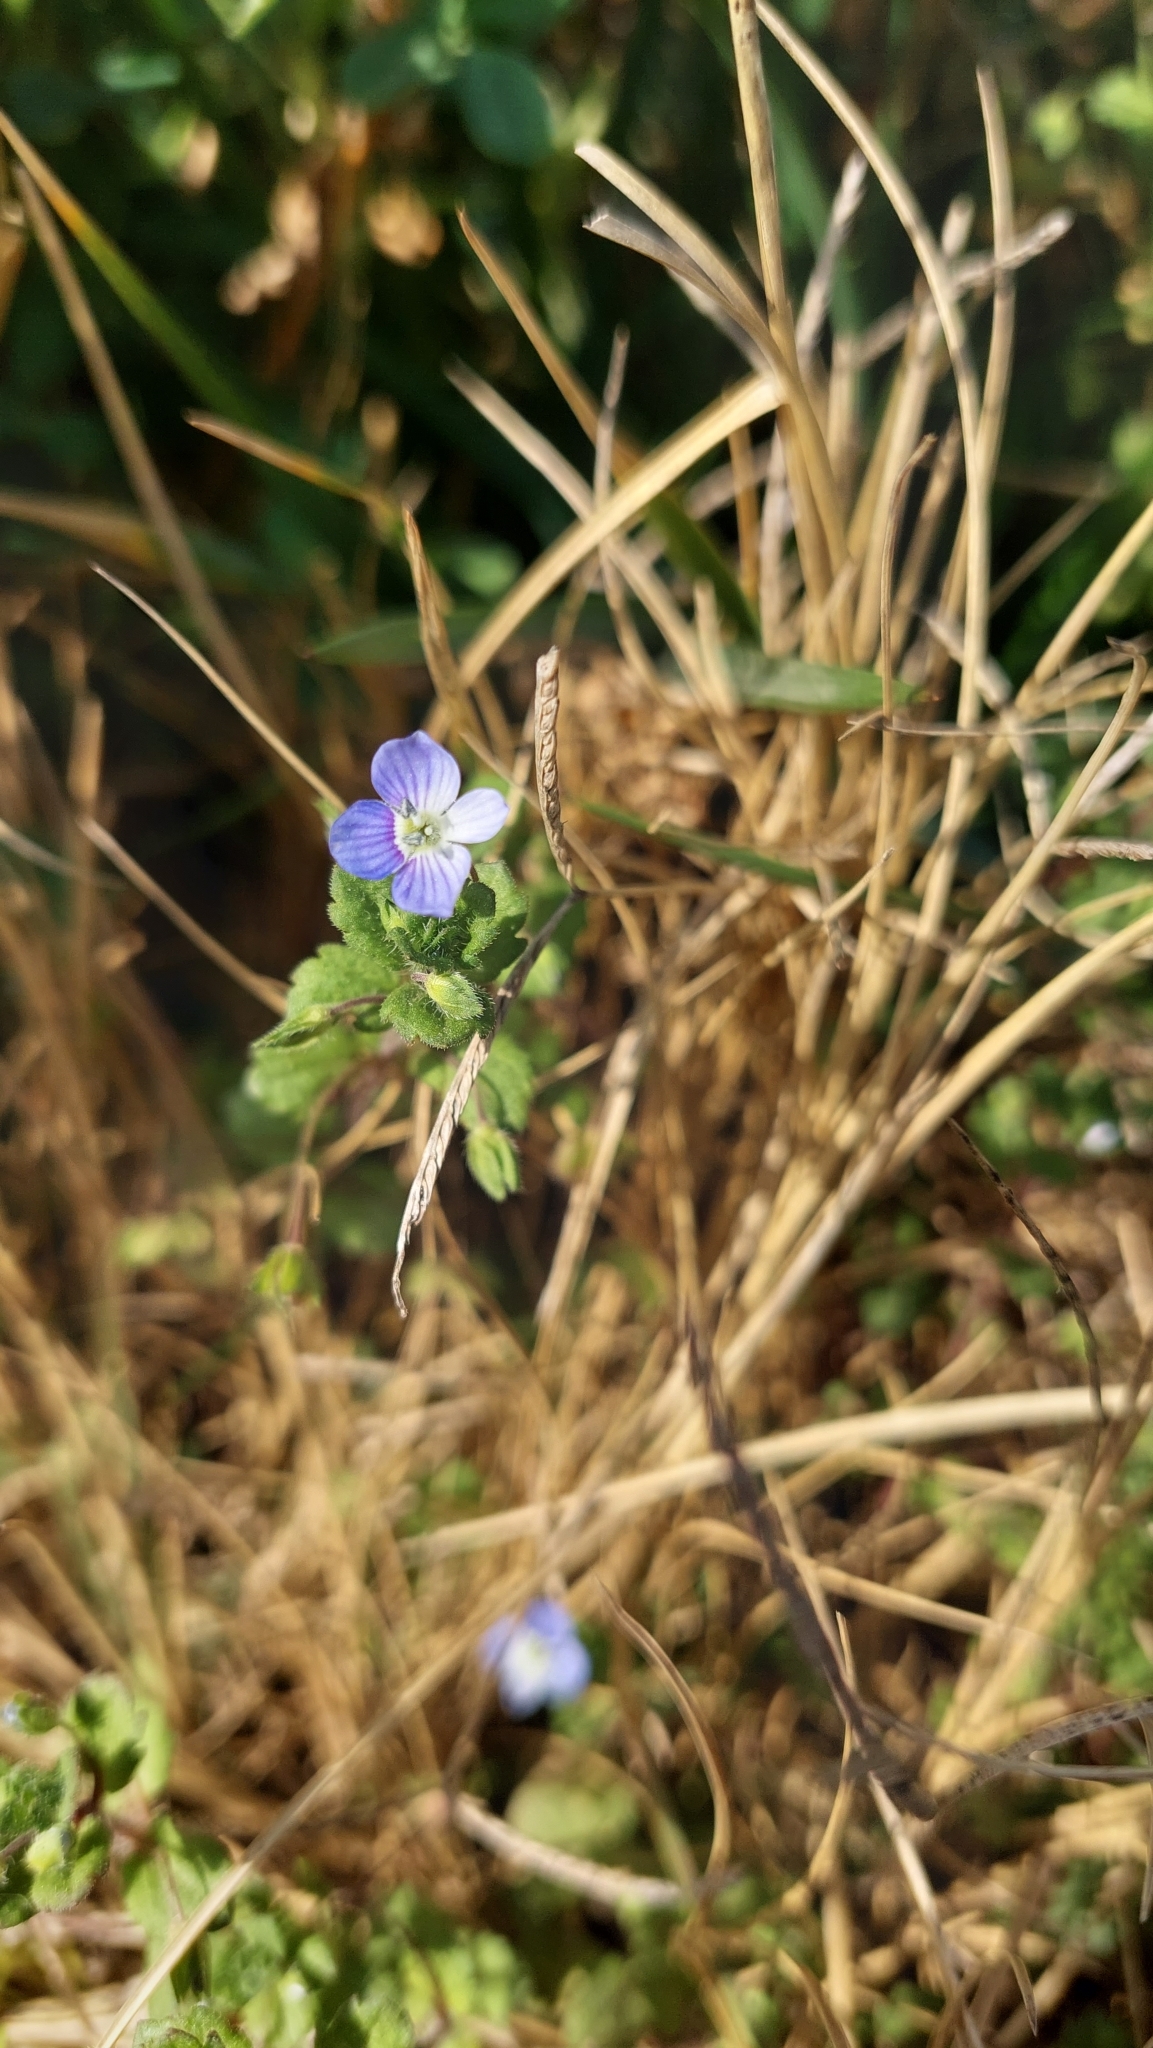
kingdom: Plantae
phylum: Tracheophyta
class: Magnoliopsida
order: Lamiales
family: Plantaginaceae
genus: Veronica
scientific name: Veronica persica
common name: Common field-speedwell
